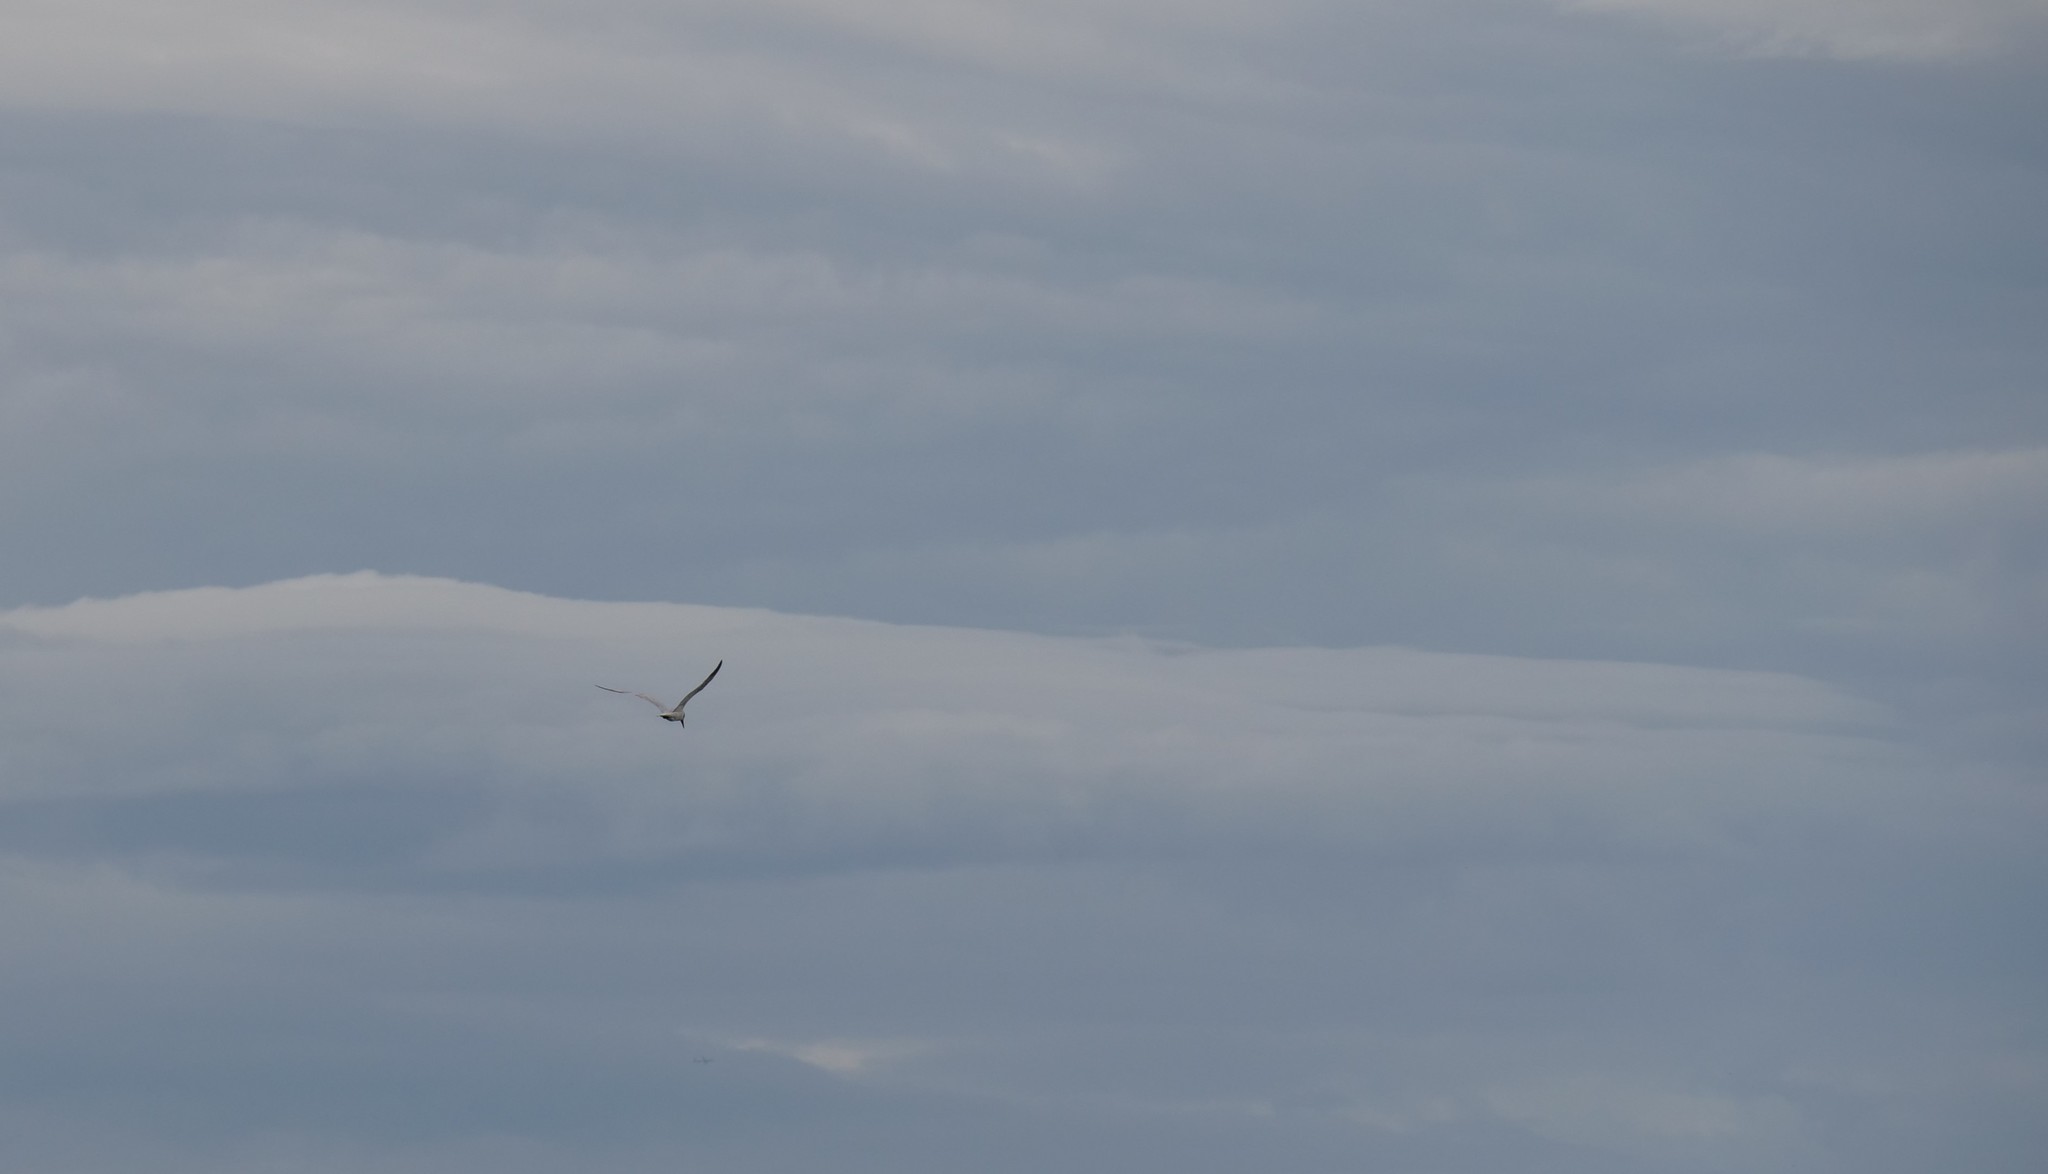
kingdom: Animalia
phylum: Chordata
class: Aves
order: Charadriiformes
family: Laridae
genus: Hydroprogne
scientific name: Hydroprogne caspia
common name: Caspian tern
